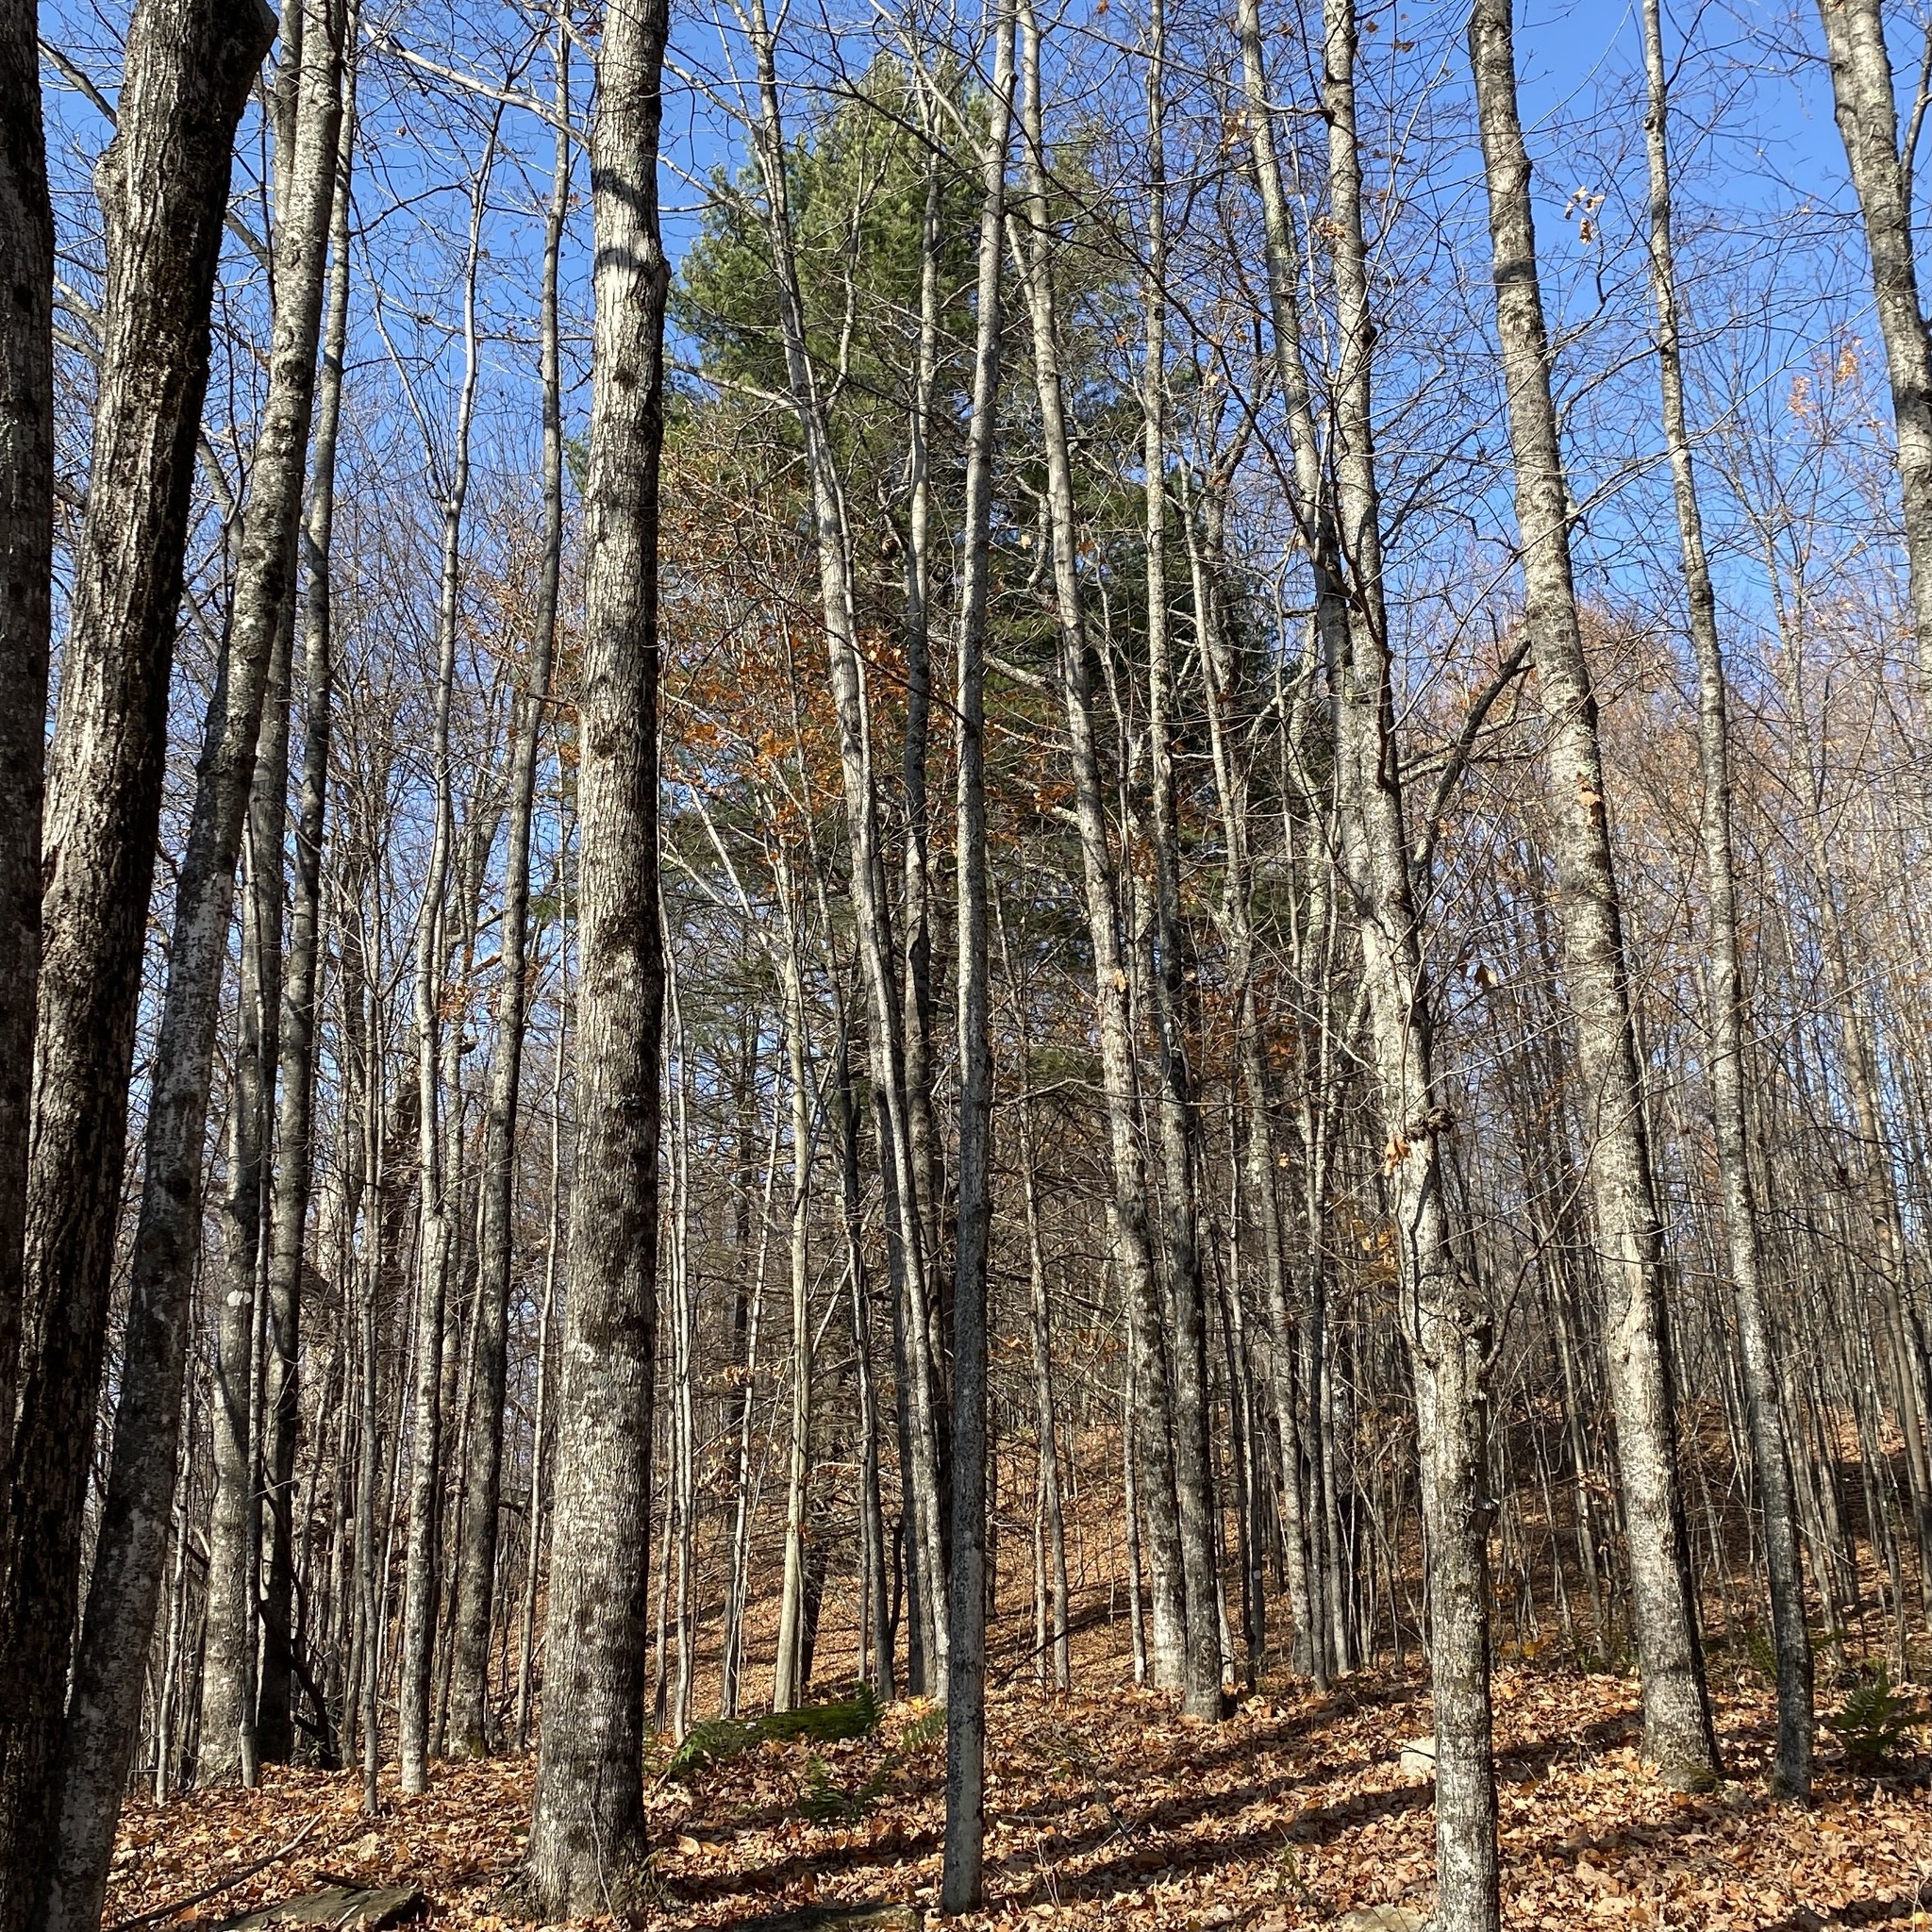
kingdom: Plantae
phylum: Tracheophyta
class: Pinopsida
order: Pinales
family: Pinaceae
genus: Pinus
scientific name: Pinus strobus
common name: Weymouth pine
